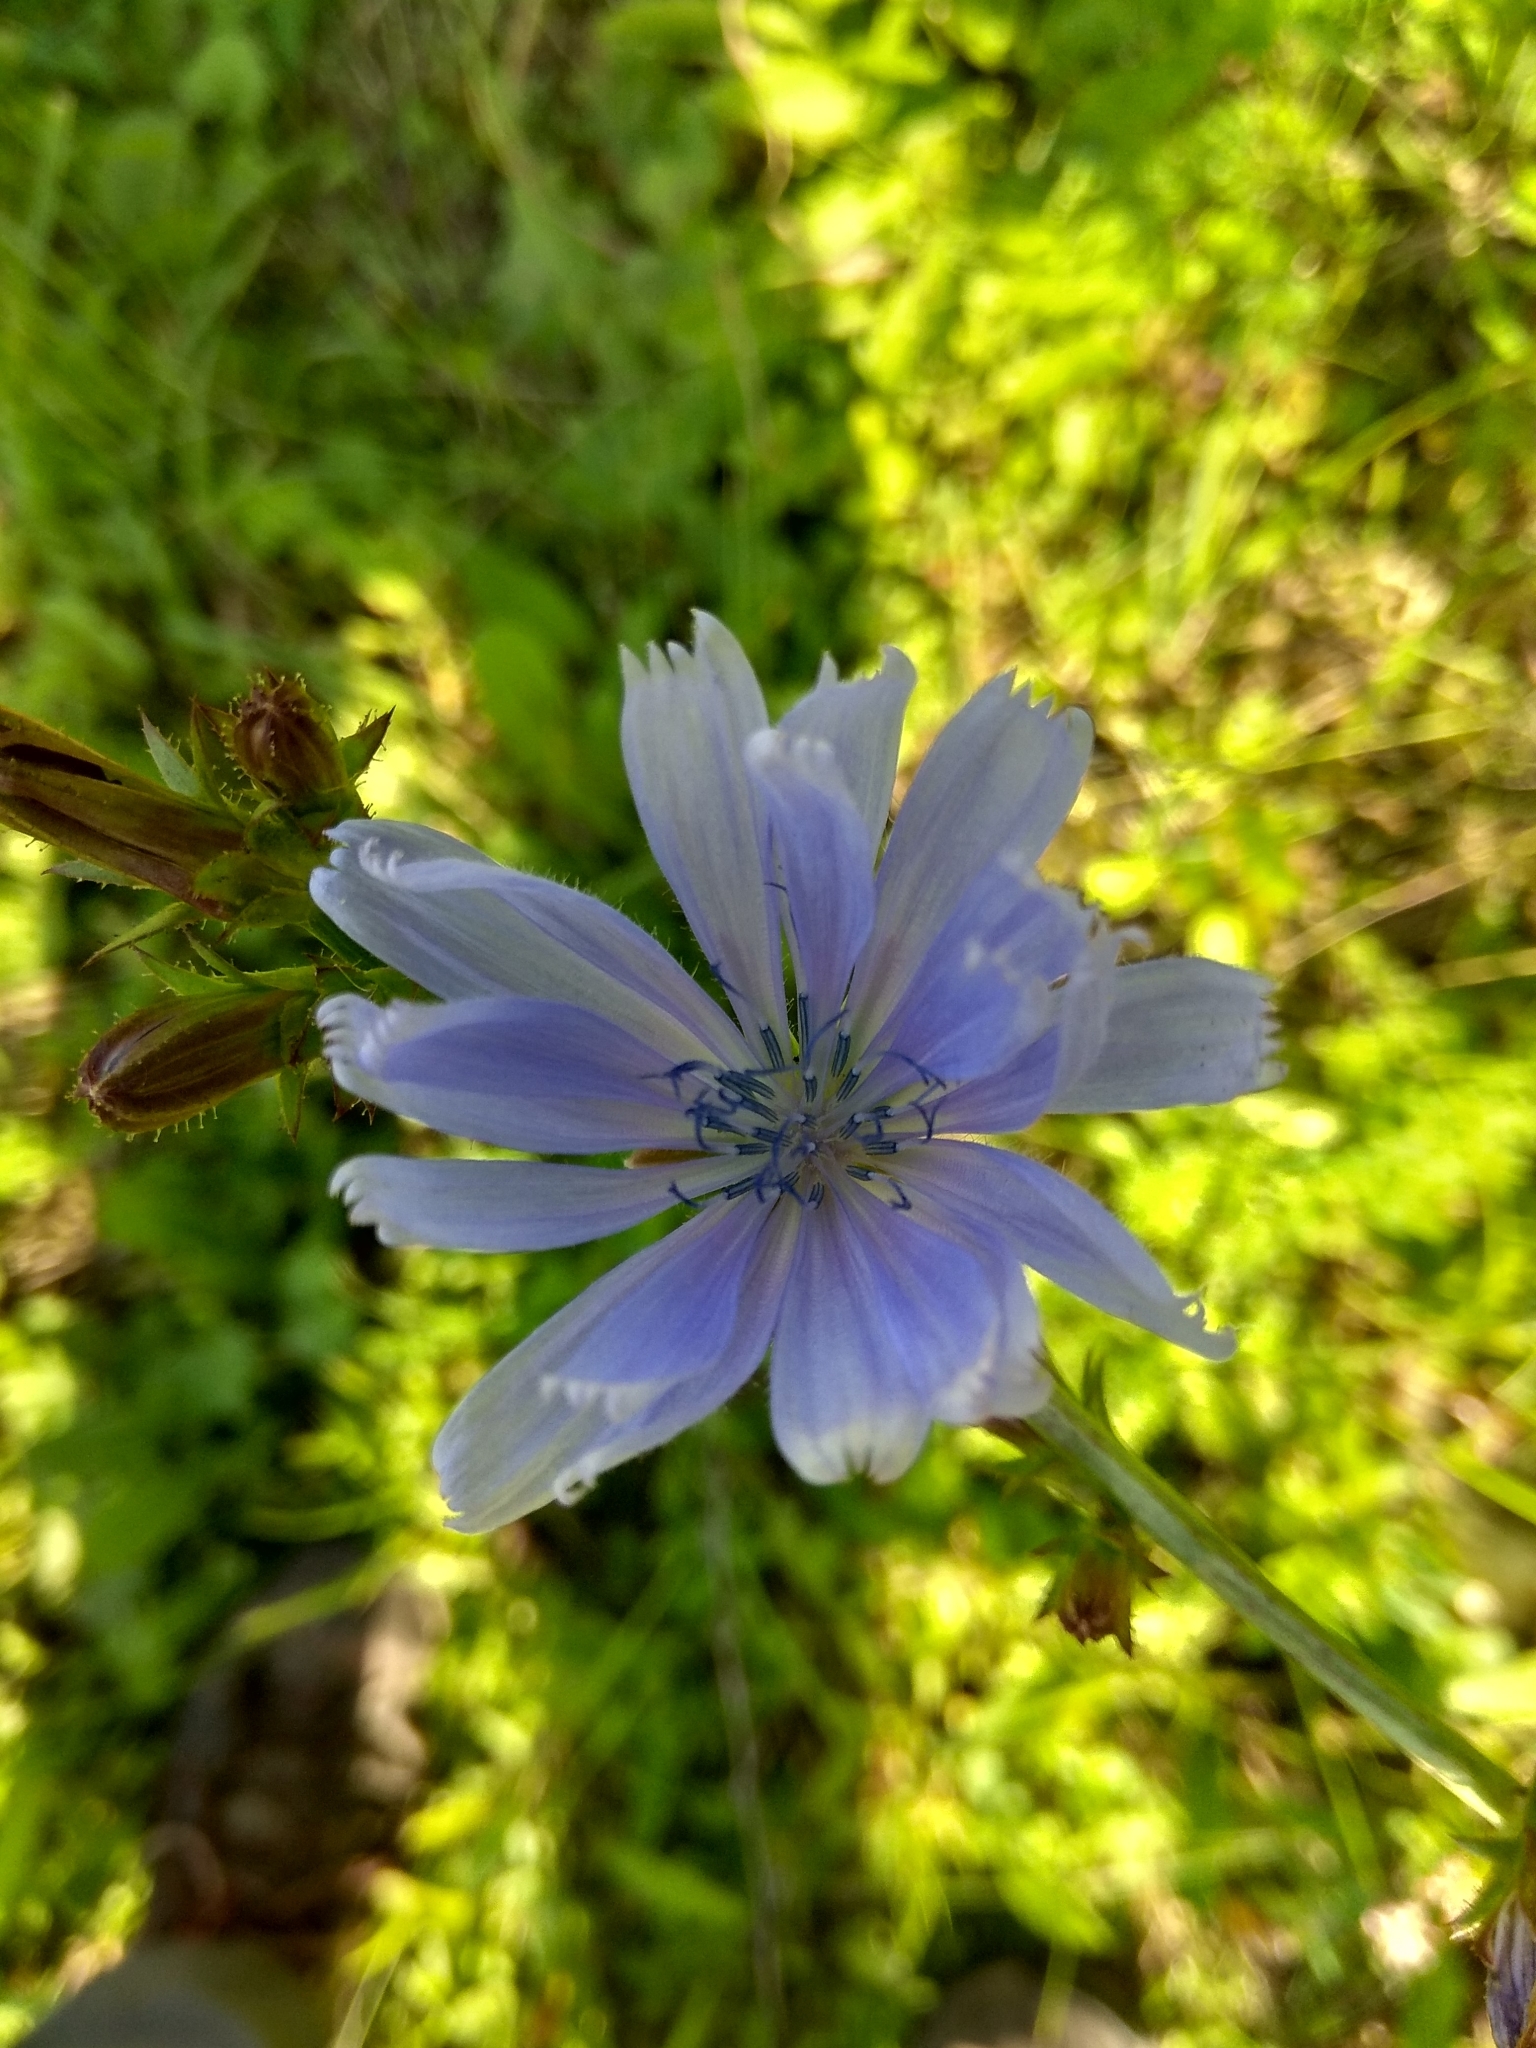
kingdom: Plantae
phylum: Tracheophyta
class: Magnoliopsida
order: Asterales
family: Asteraceae
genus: Cichorium
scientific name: Cichorium intybus
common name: Chicory
